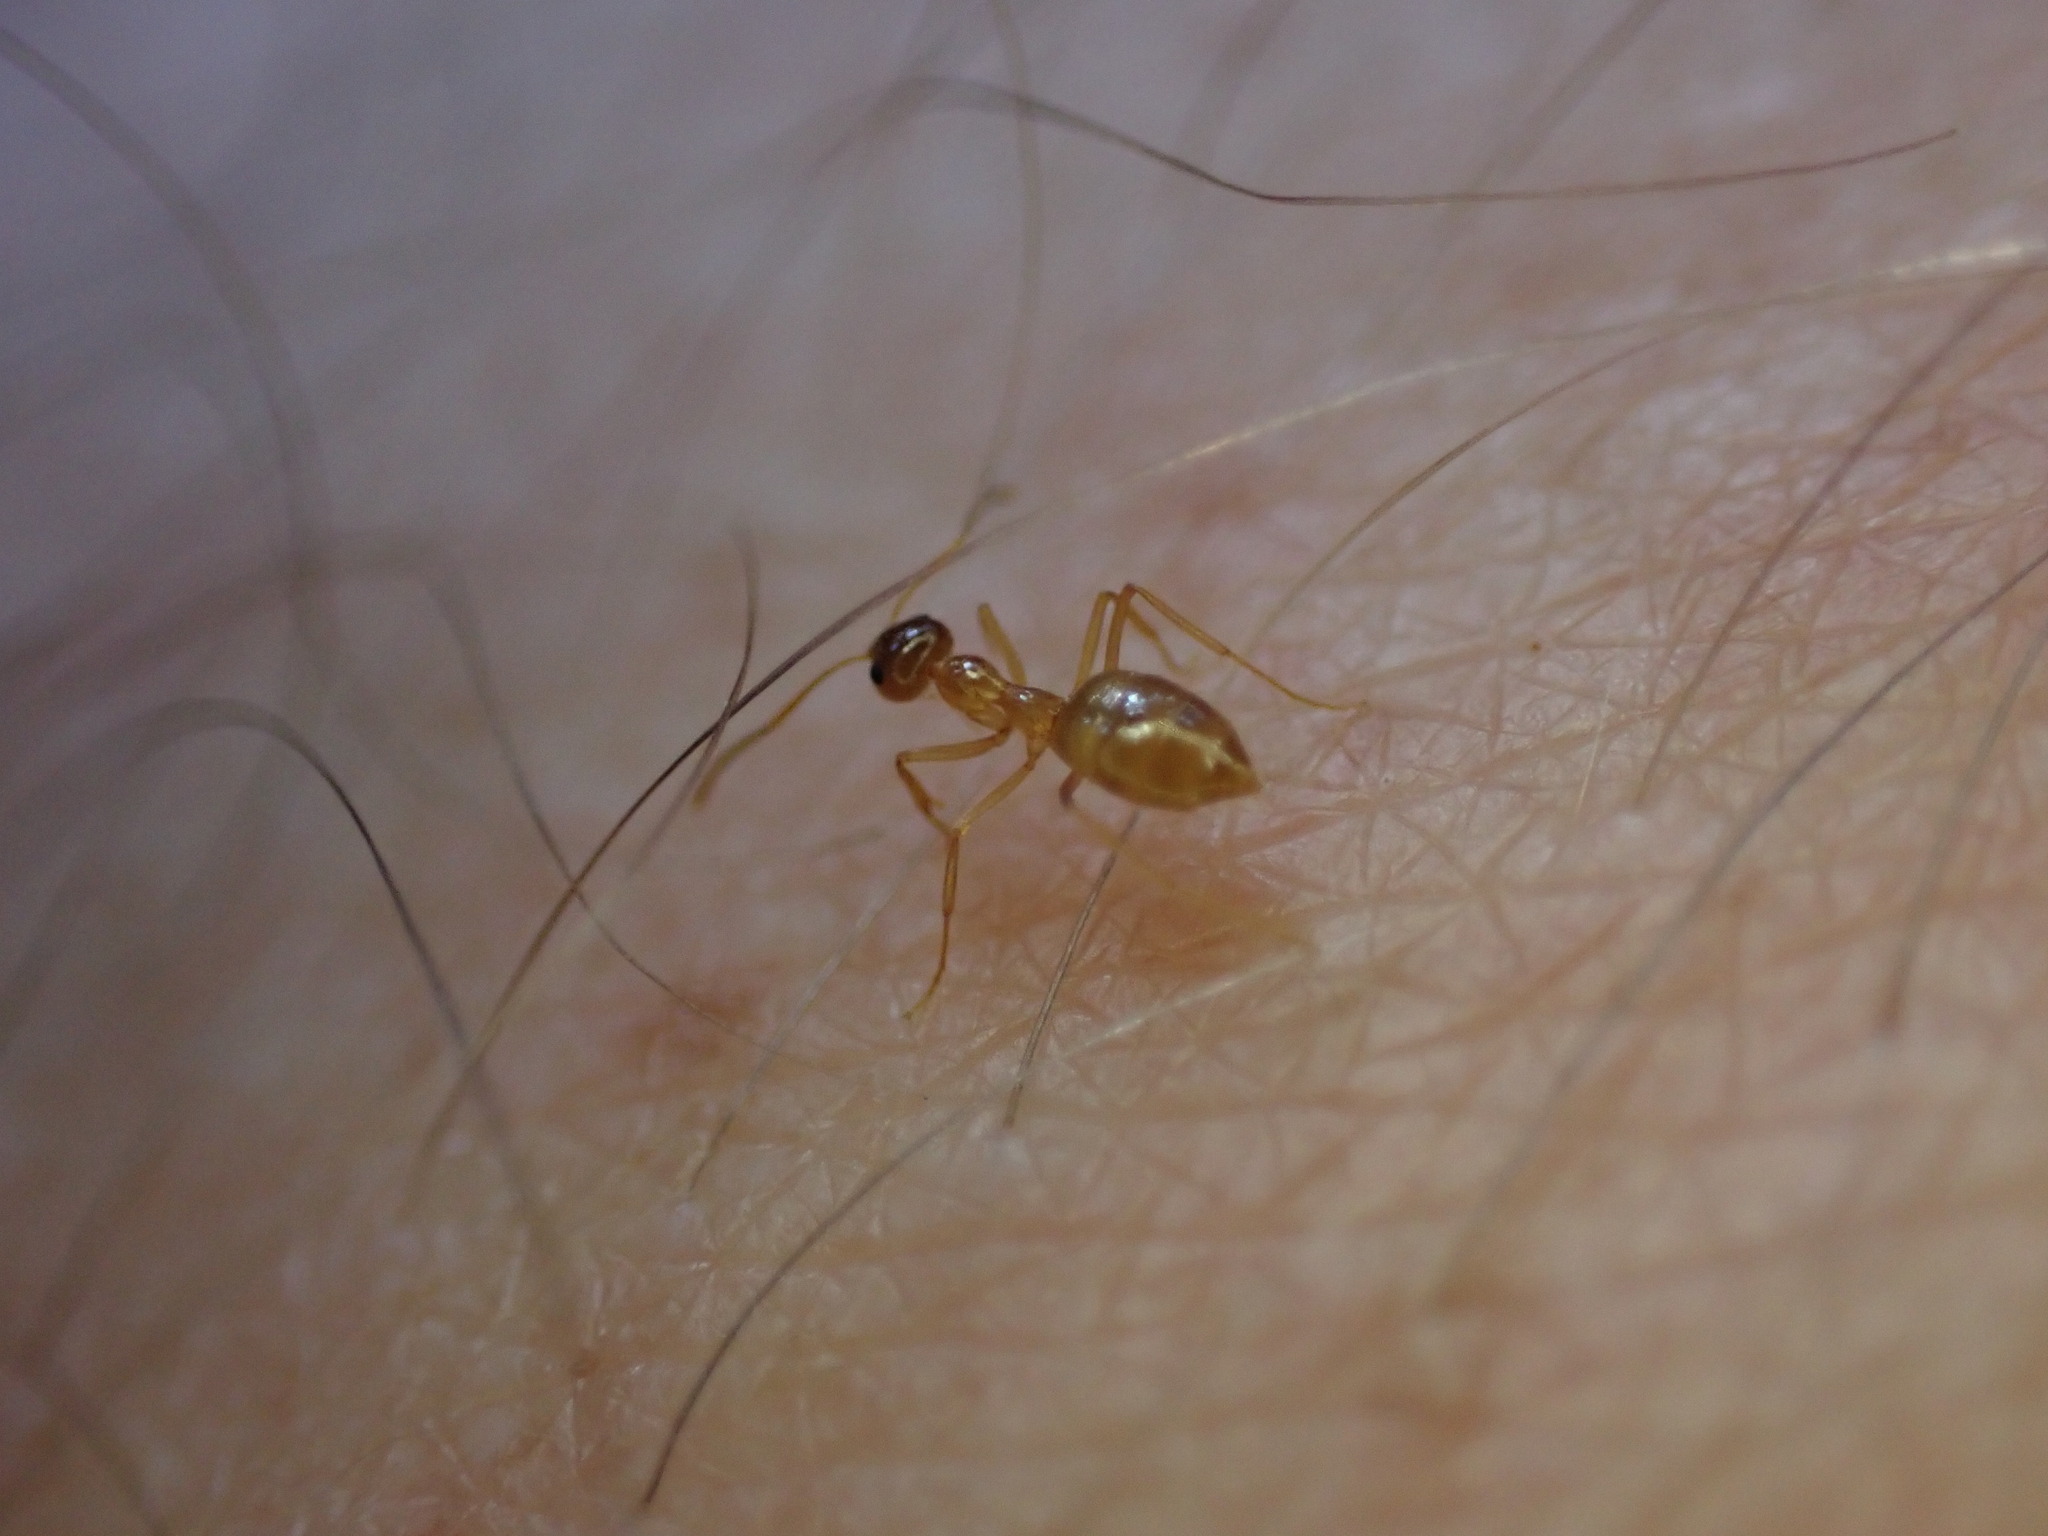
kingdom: Animalia
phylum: Arthropoda
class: Insecta
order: Hymenoptera
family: Formicidae
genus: Prenolepis
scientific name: Prenolepis imparis
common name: Small honey ant
